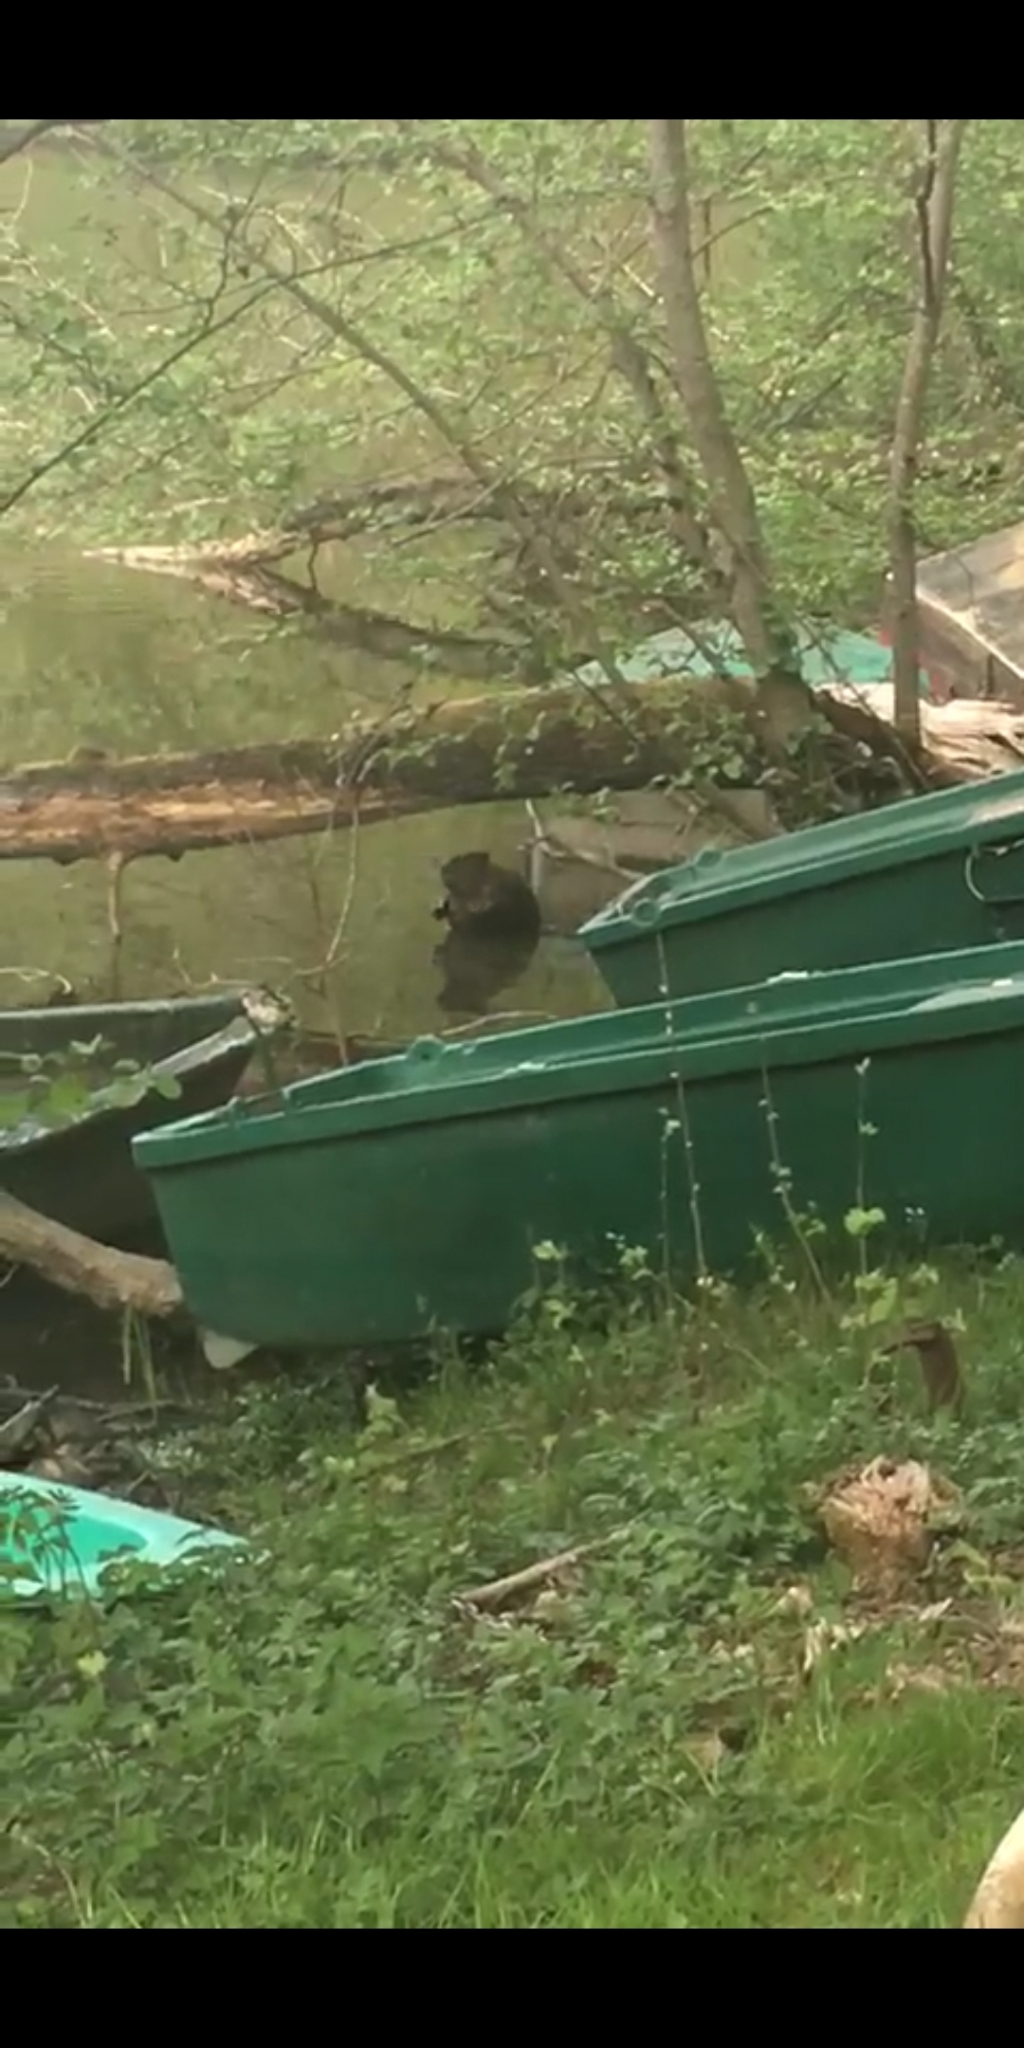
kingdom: Animalia
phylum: Chordata
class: Mammalia
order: Rodentia
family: Castoridae
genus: Castor
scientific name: Castor fiber
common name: Eurasian beaver
